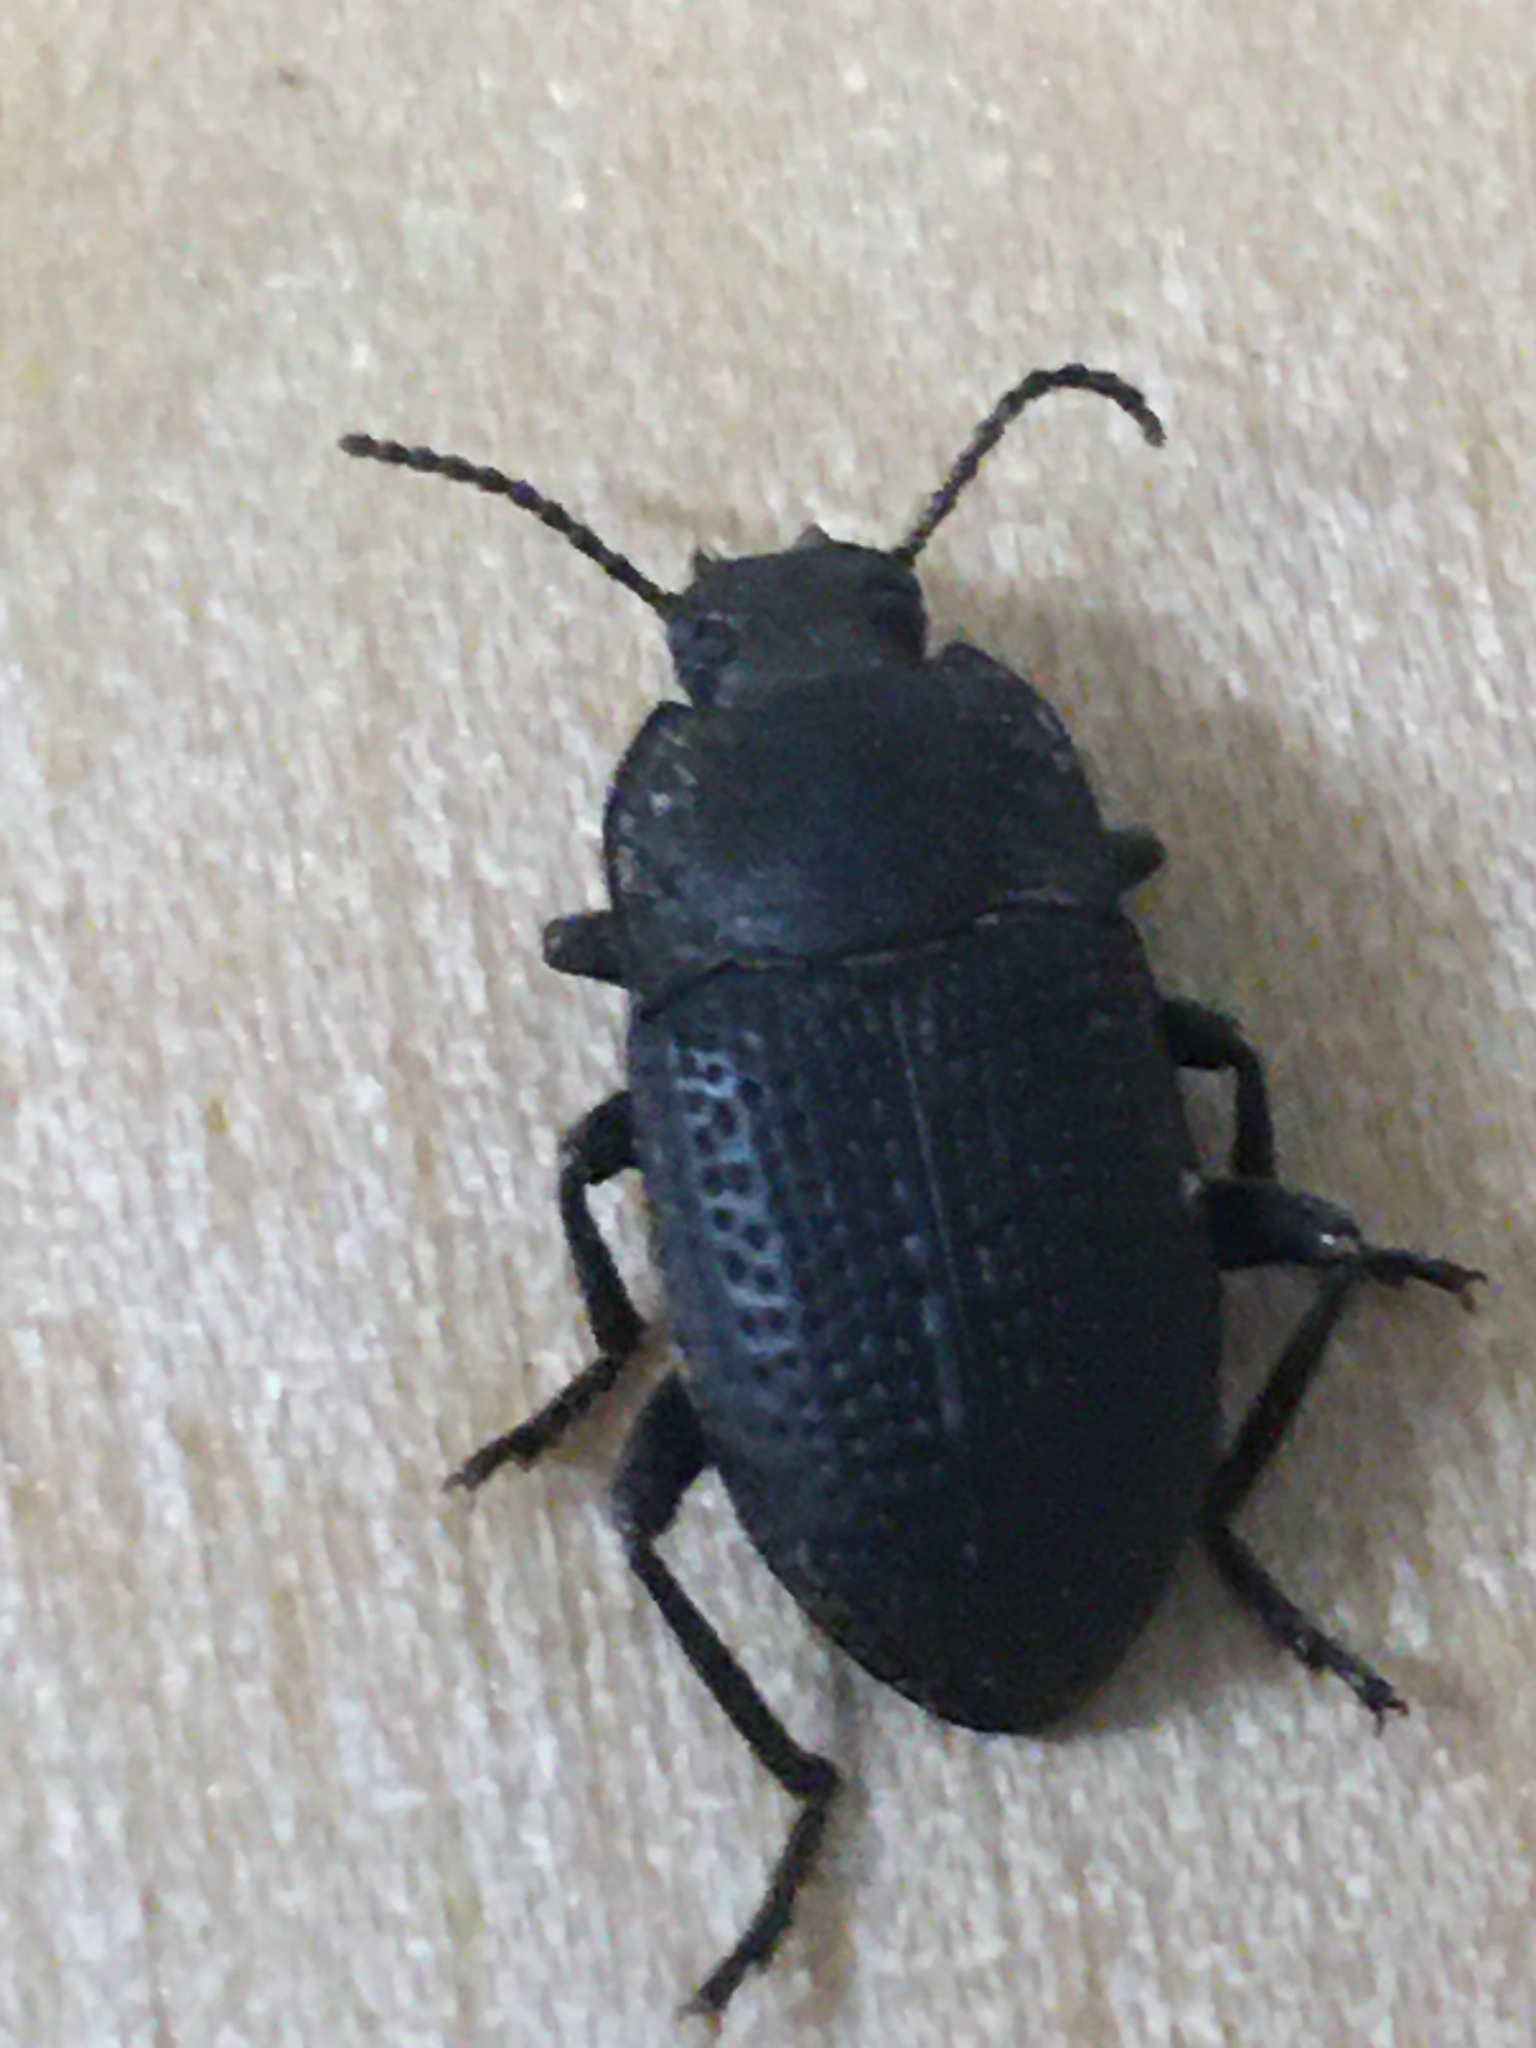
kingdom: Animalia
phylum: Arthropoda
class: Insecta
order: Coleoptera
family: Tenebrionidae
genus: Asiopus
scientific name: Asiopus
